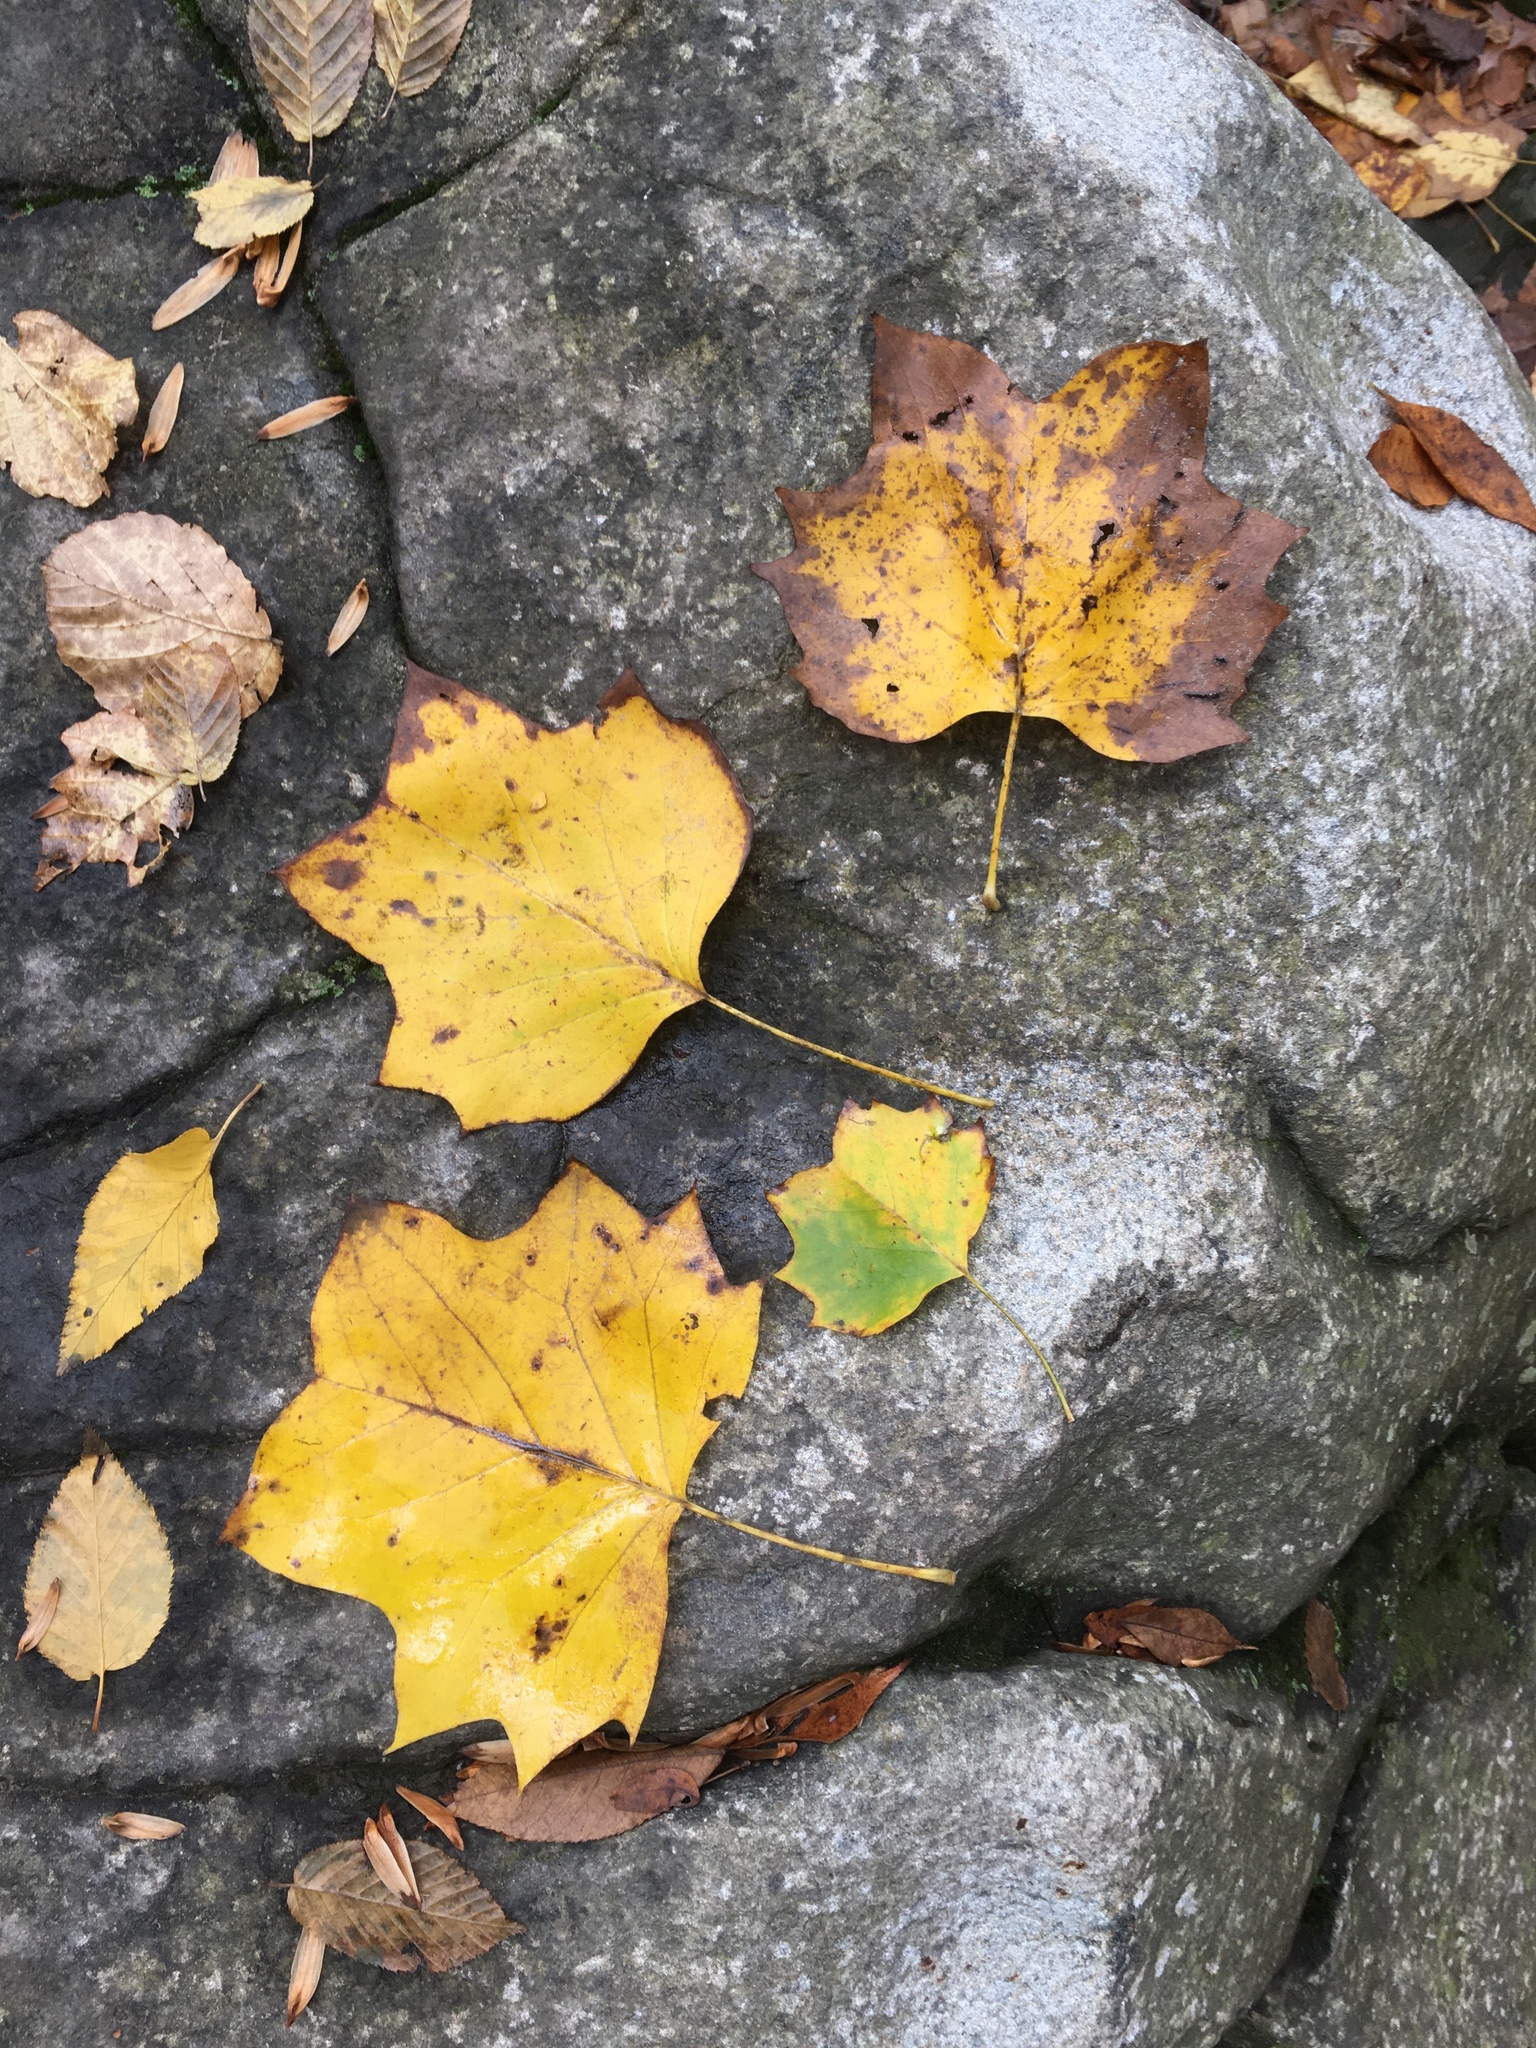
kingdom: Plantae
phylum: Tracheophyta
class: Magnoliopsida
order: Magnoliales
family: Magnoliaceae
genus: Liriodendron
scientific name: Liriodendron tulipifera
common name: Tulip tree
